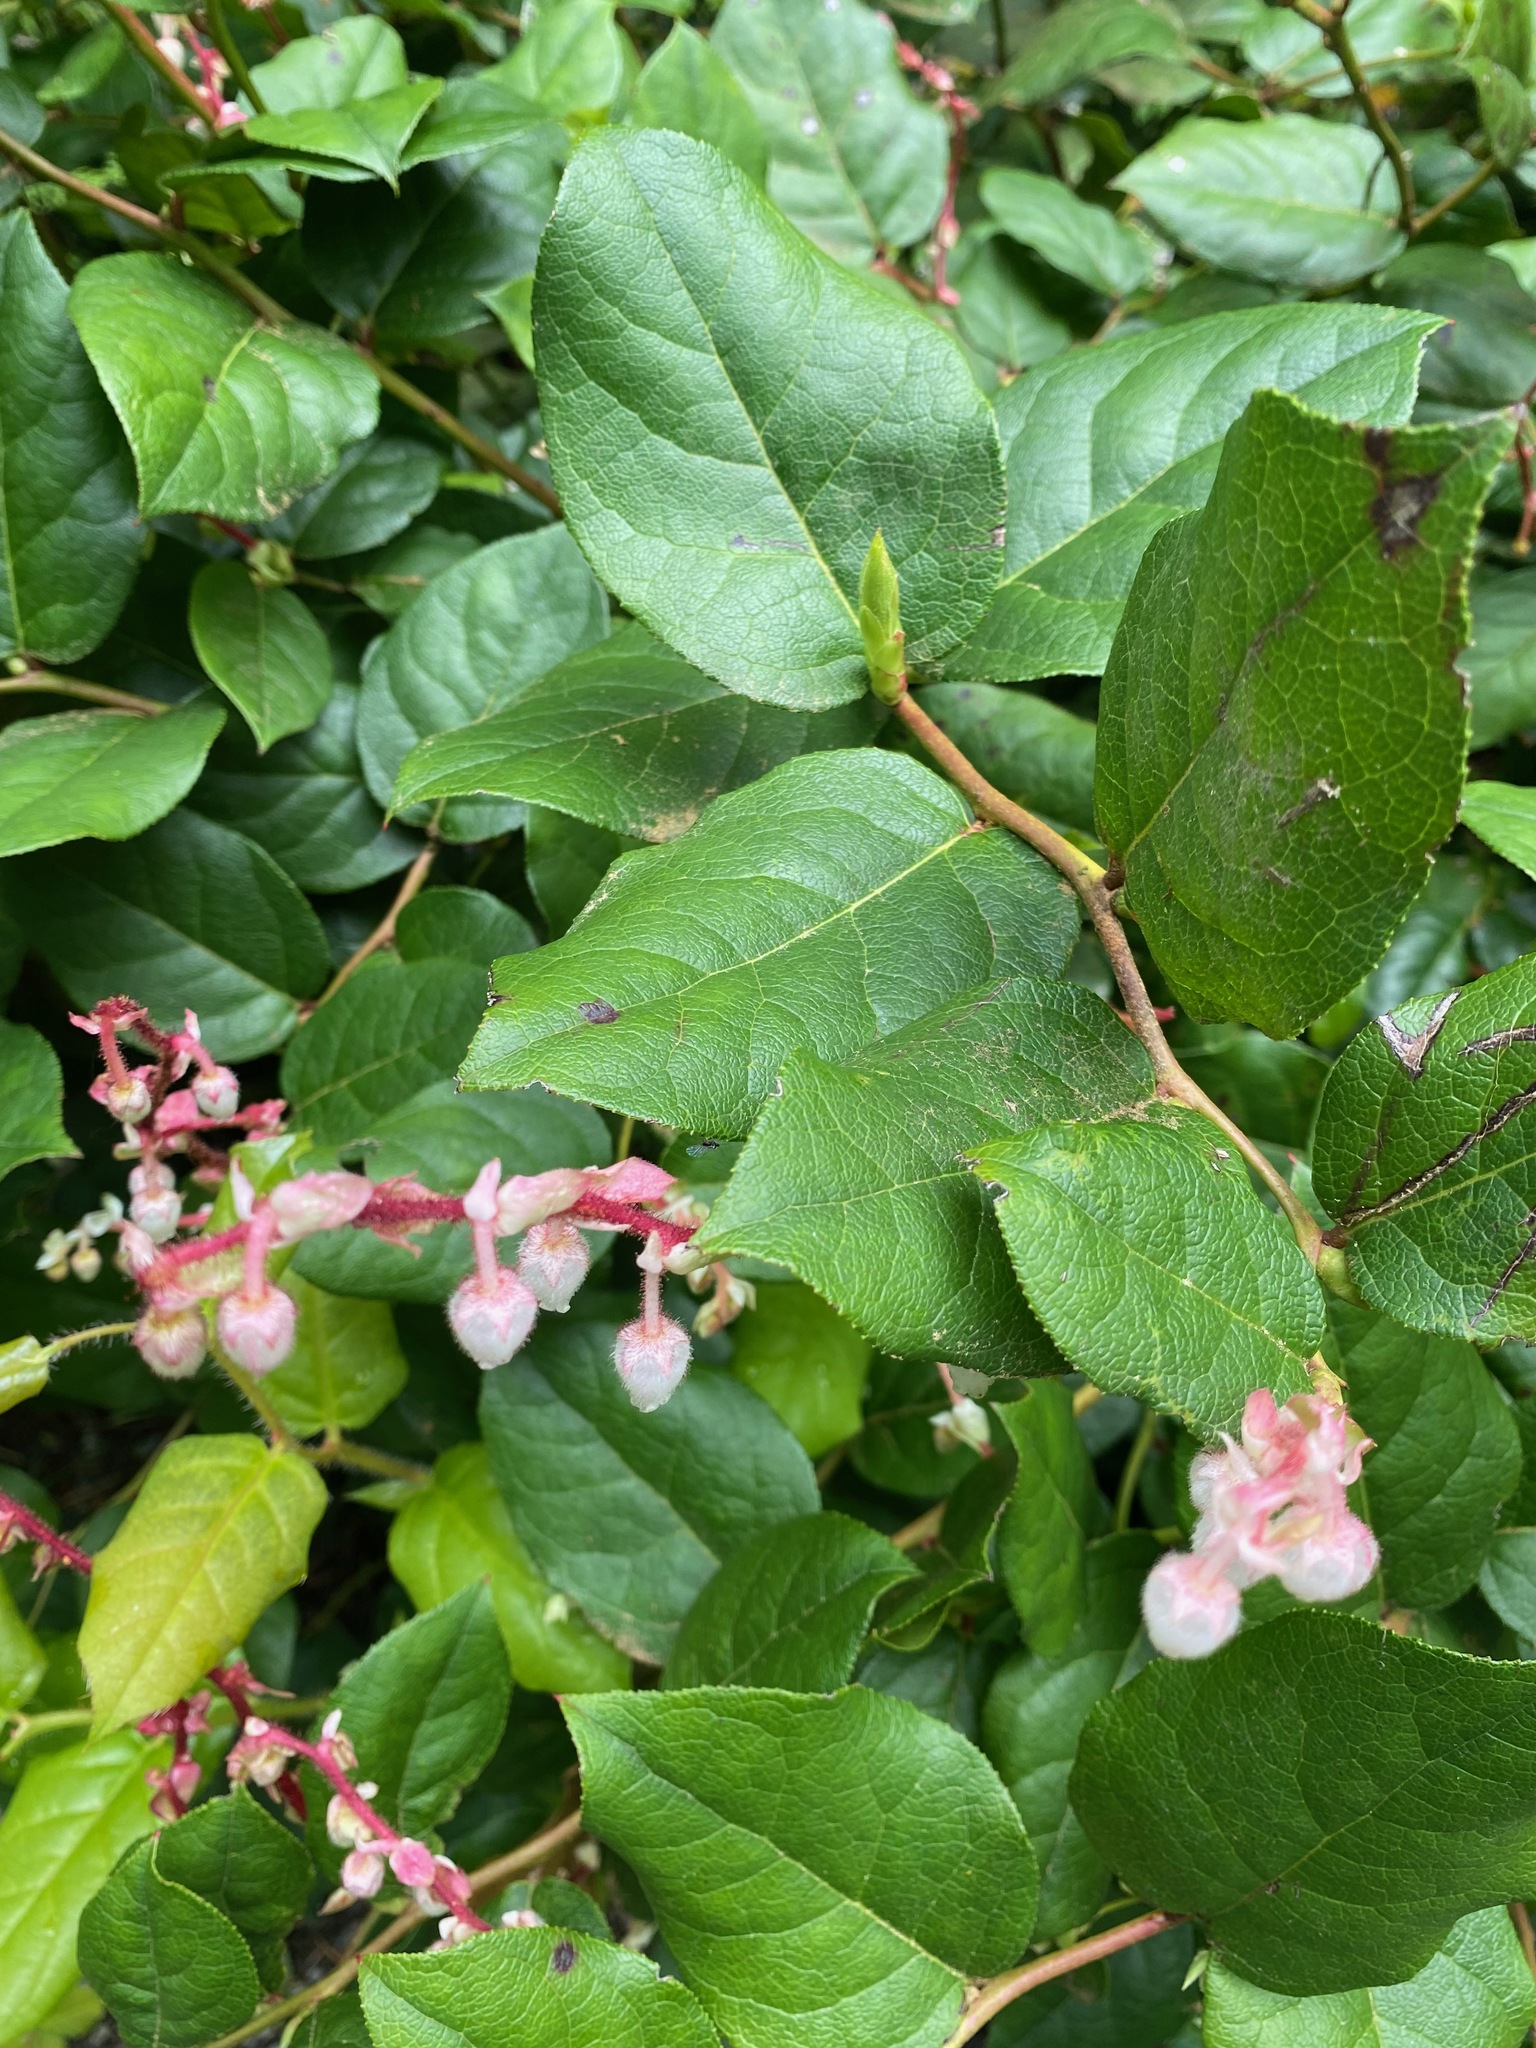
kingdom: Plantae
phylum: Tracheophyta
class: Magnoliopsida
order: Ericales
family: Ericaceae
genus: Gaultheria
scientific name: Gaultheria shallon
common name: Shallon
